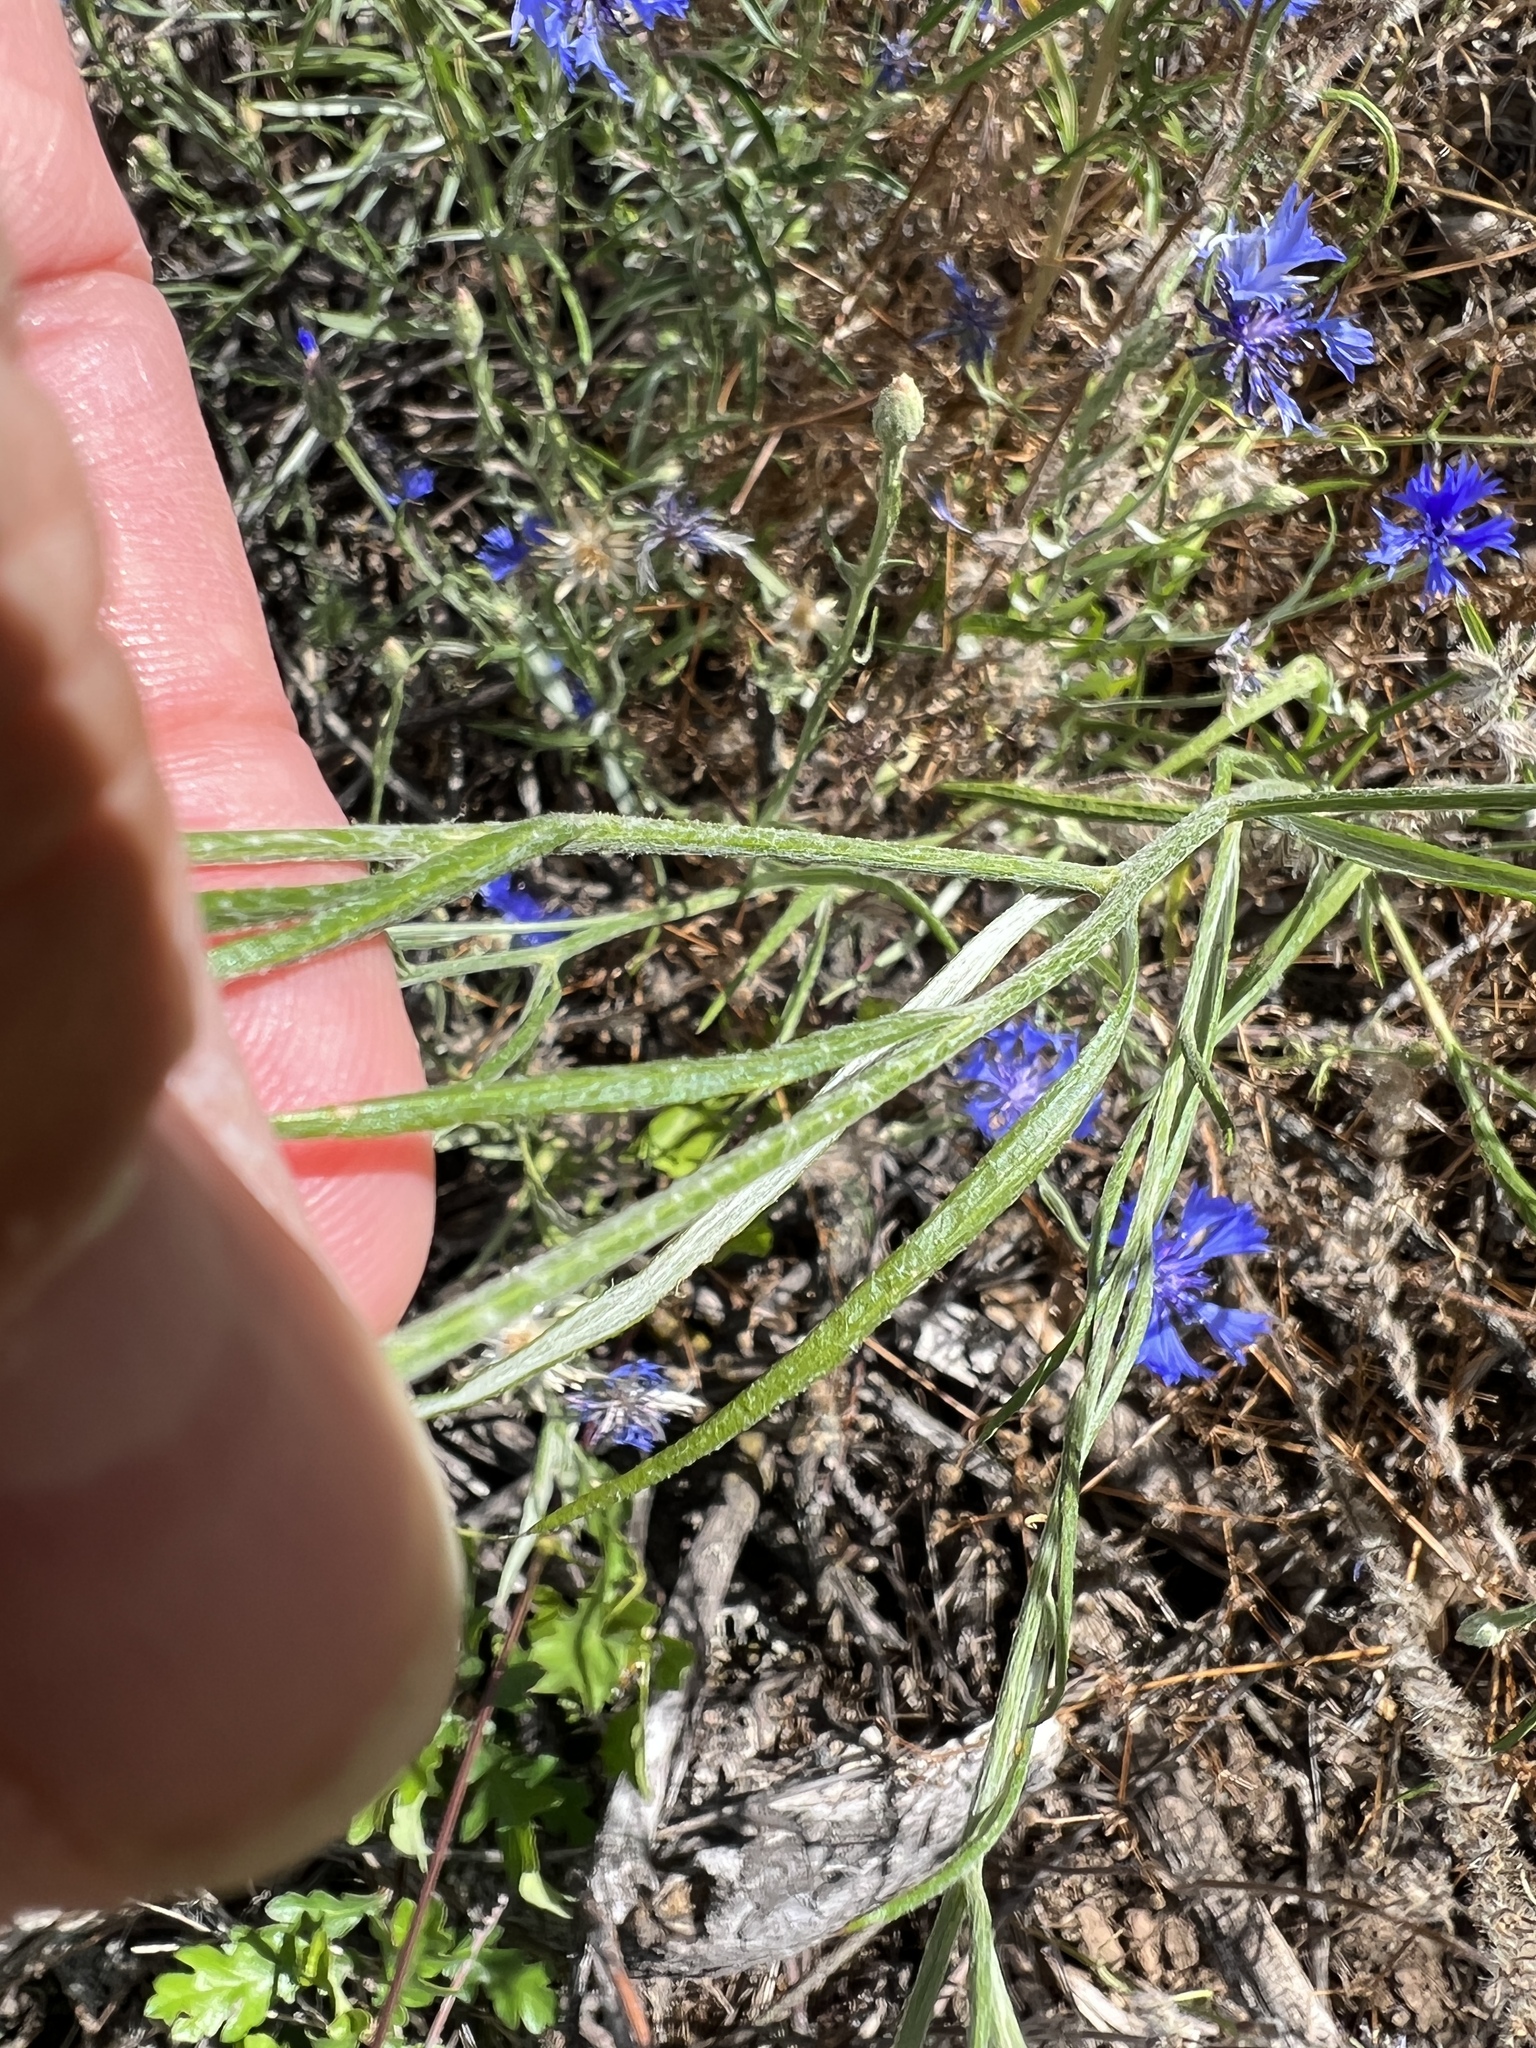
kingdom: Plantae
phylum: Tracheophyta
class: Magnoliopsida
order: Asterales
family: Asteraceae
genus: Centaurea
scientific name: Centaurea cyanus
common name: Cornflower
